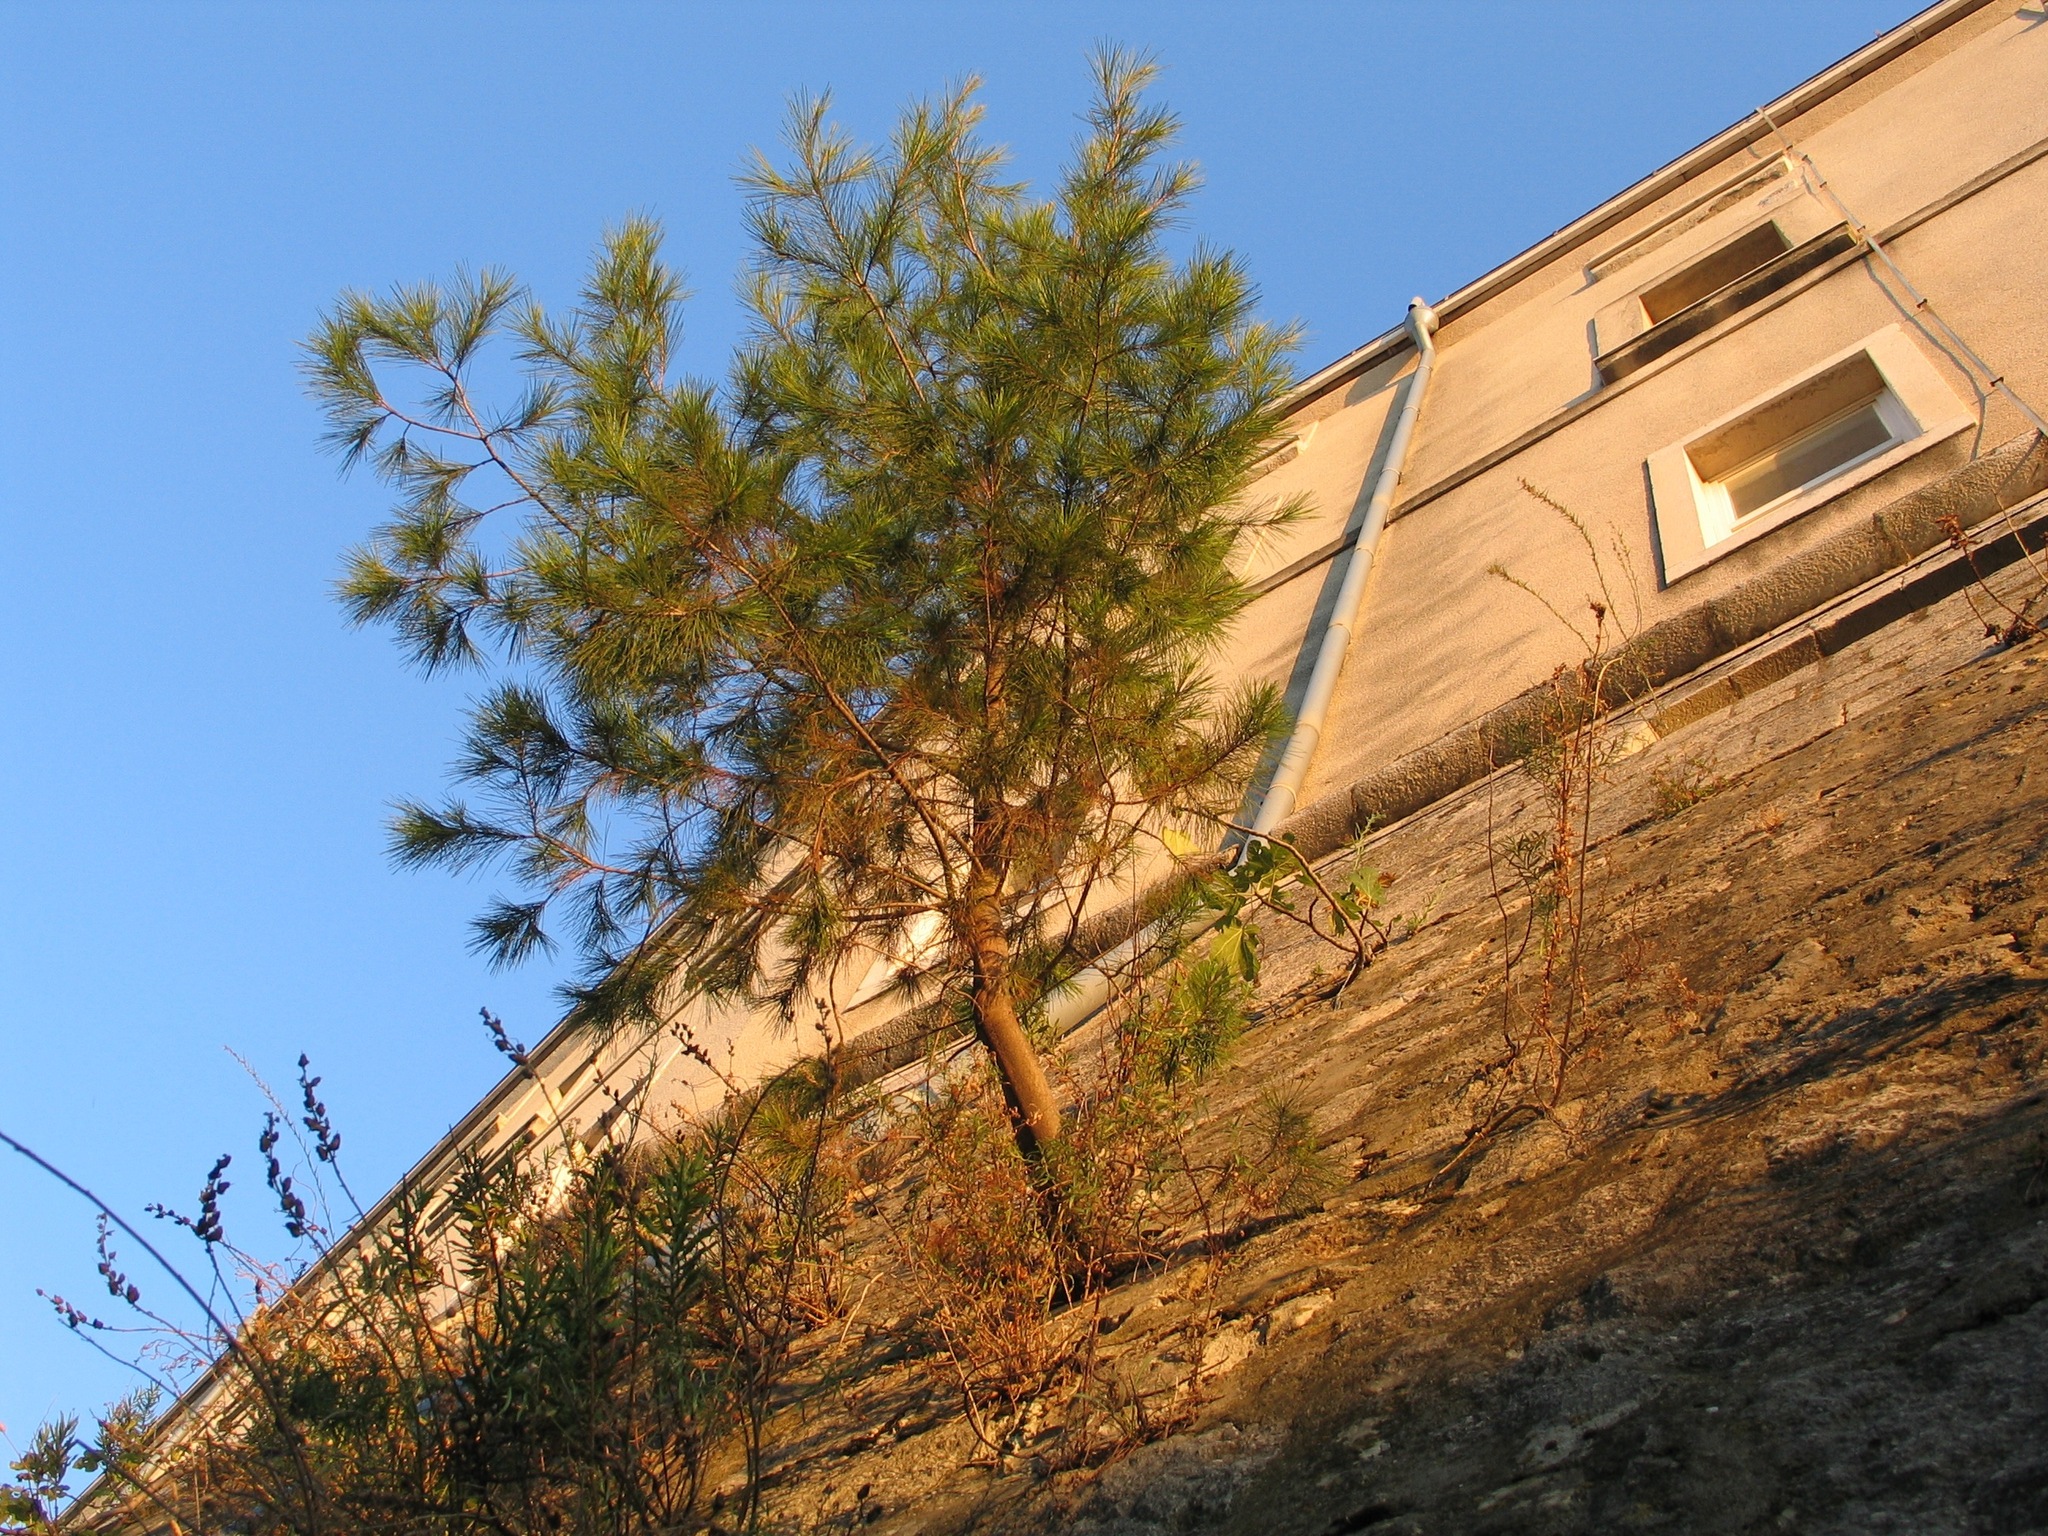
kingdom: Plantae
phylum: Tracheophyta
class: Pinopsida
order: Pinales
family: Pinaceae
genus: Pinus
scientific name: Pinus halepensis
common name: Aleppo pine
